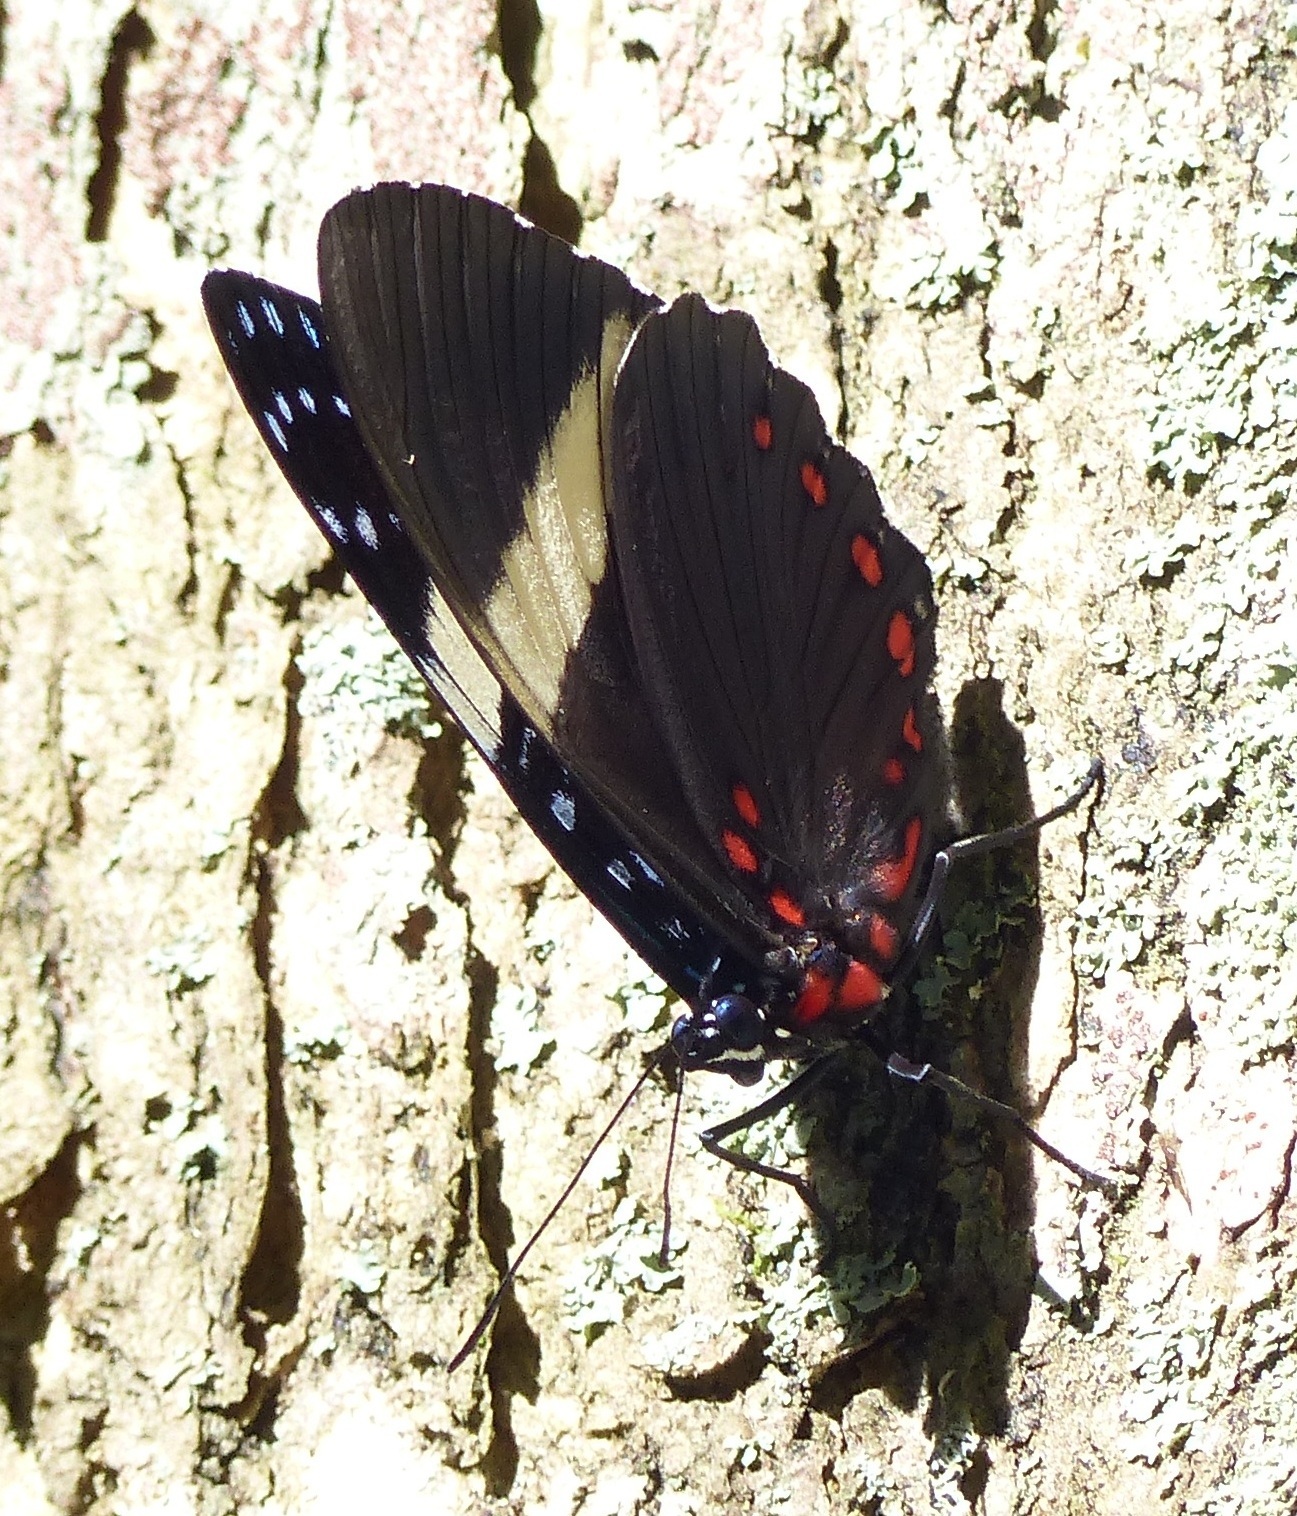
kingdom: Animalia
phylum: Arthropoda
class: Insecta
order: Lepidoptera
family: Nymphalidae
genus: Hamadryas
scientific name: Hamadryas laodamia
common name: Starry night cracker
